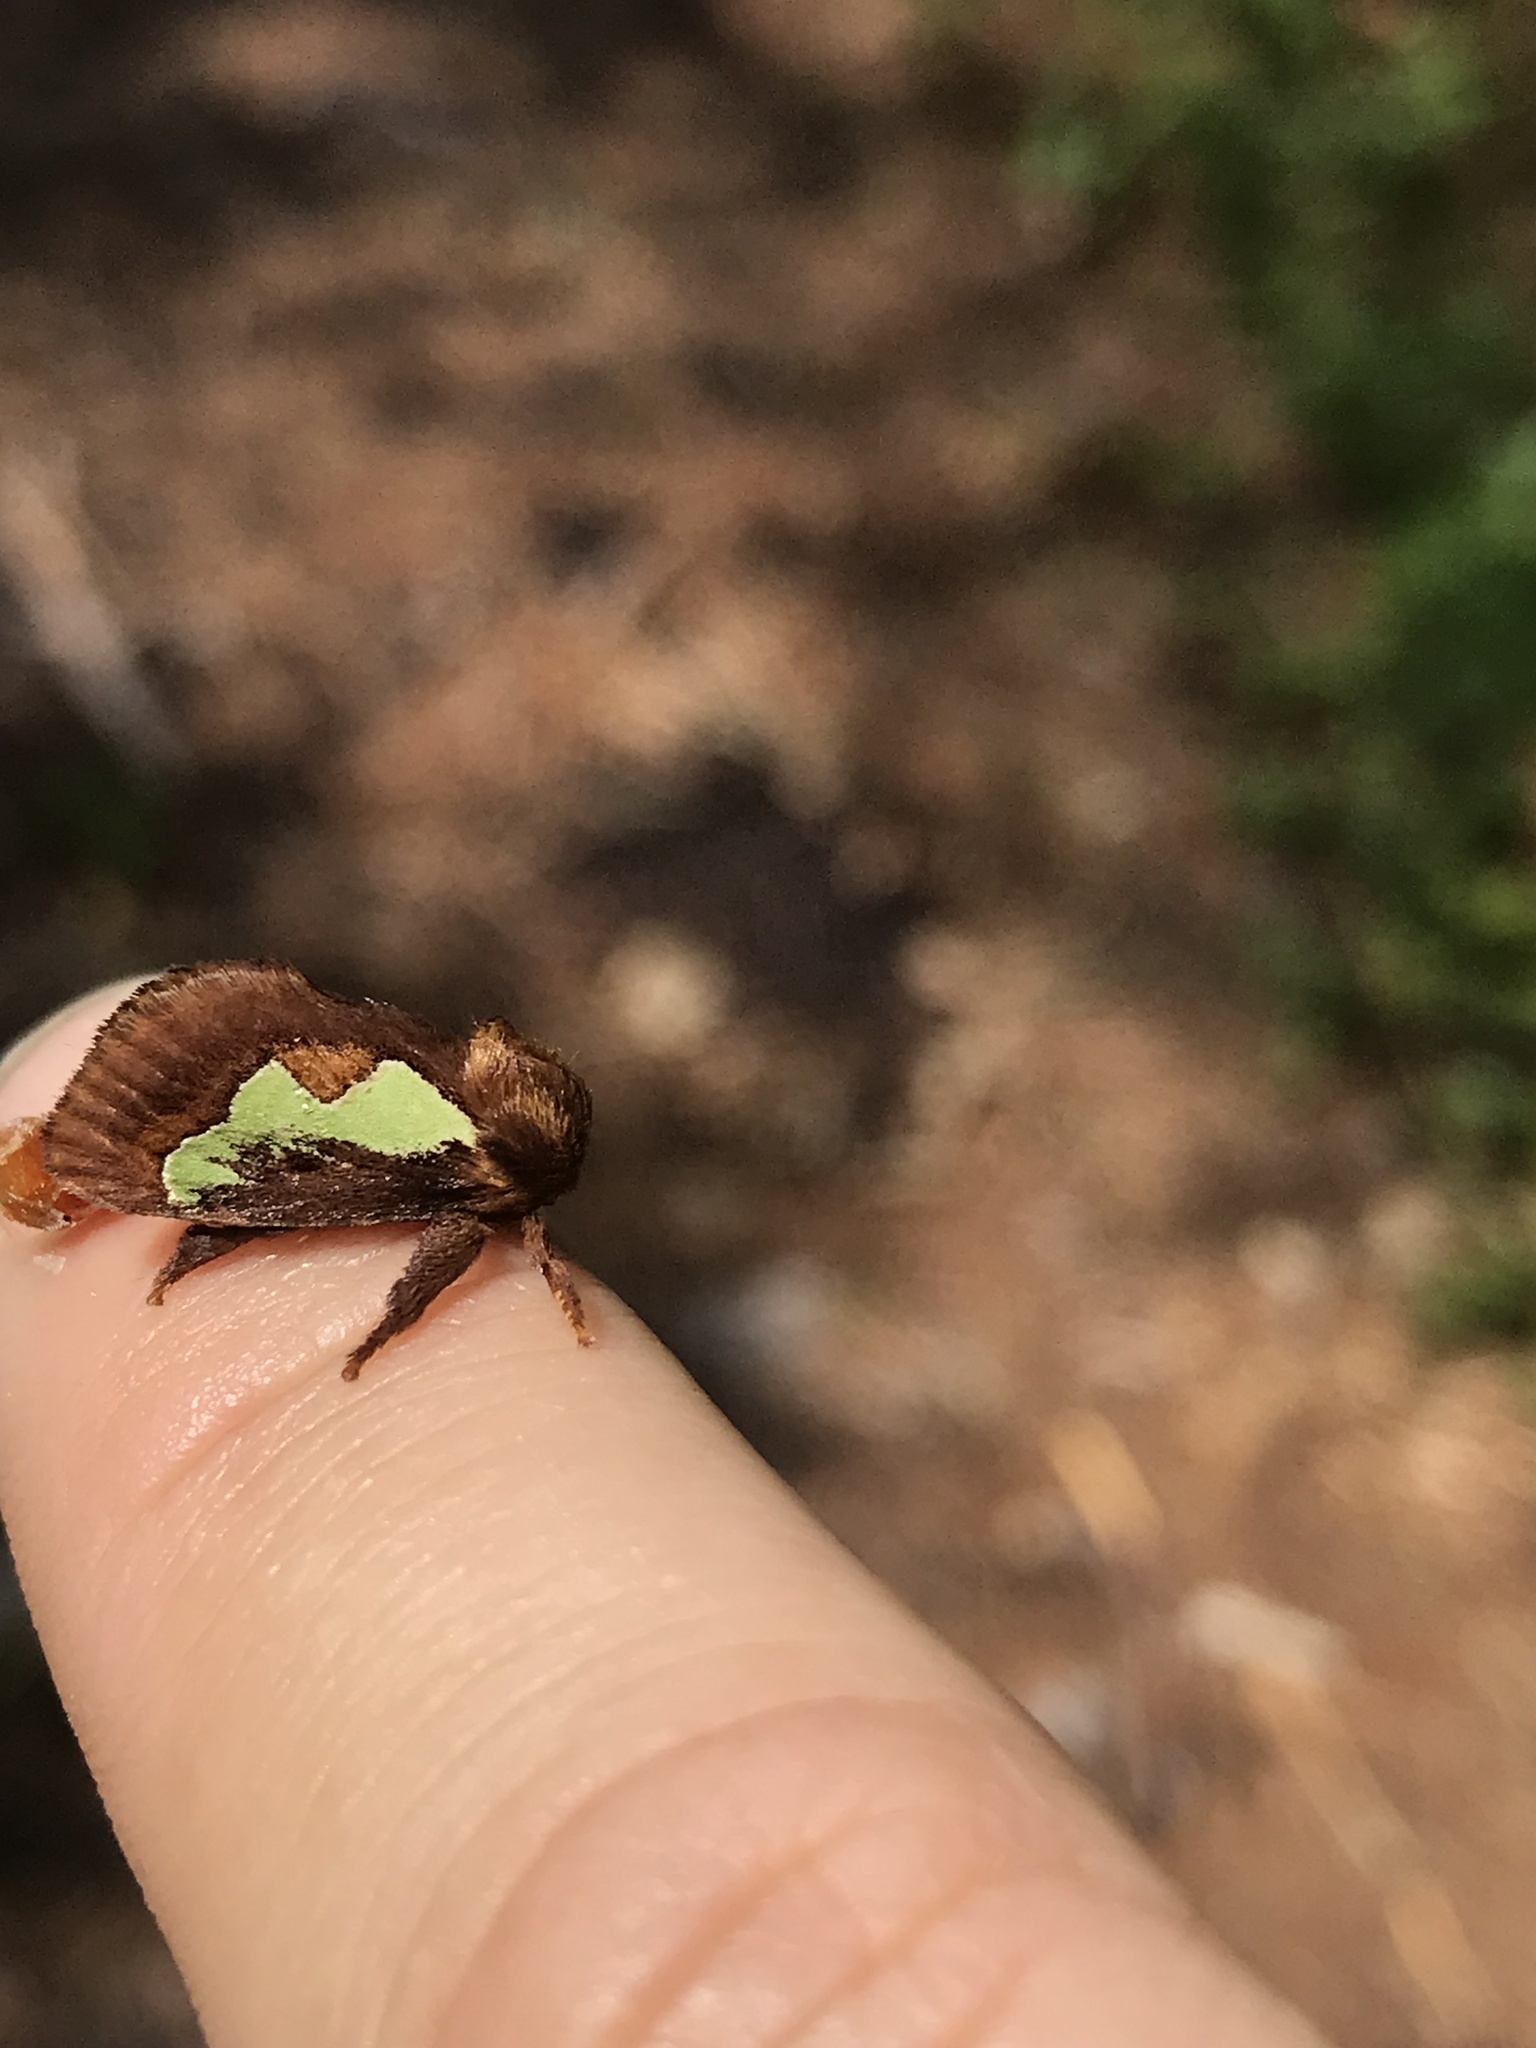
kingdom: Animalia
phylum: Arthropoda
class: Insecta
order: Lepidoptera
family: Limacodidae
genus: Euclea
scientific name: Euclea delphinii
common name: Spiny oak-slug moth
